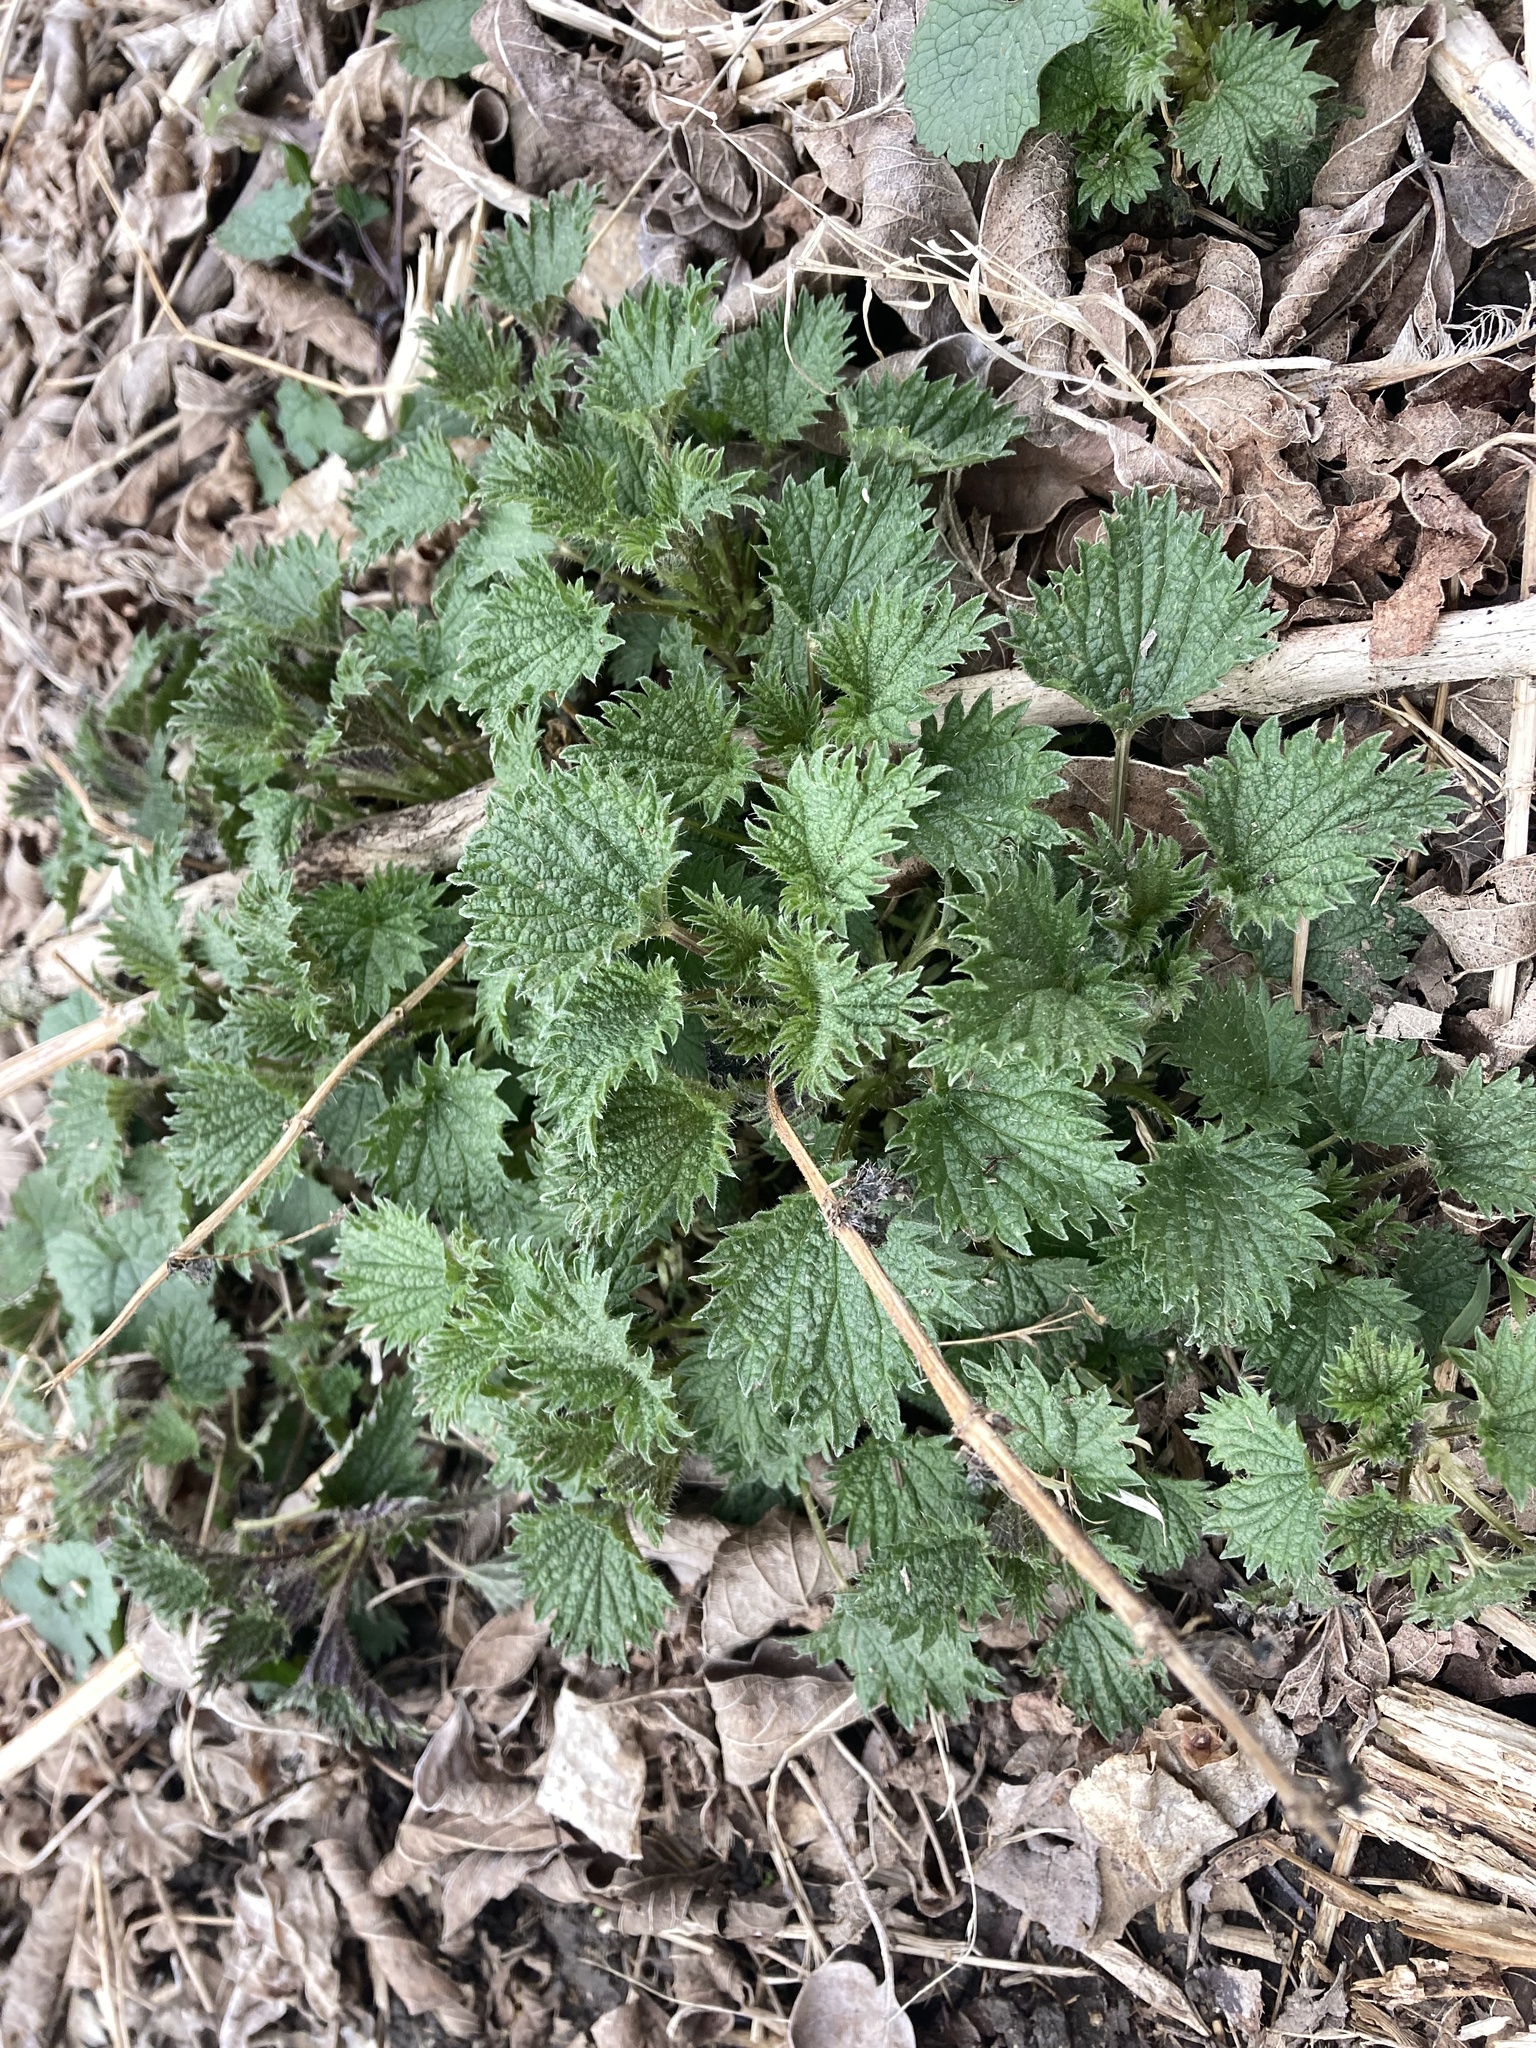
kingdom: Plantae
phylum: Tracheophyta
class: Magnoliopsida
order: Rosales
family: Urticaceae
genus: Urtica
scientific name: Urtica dioica
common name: Common nettle
